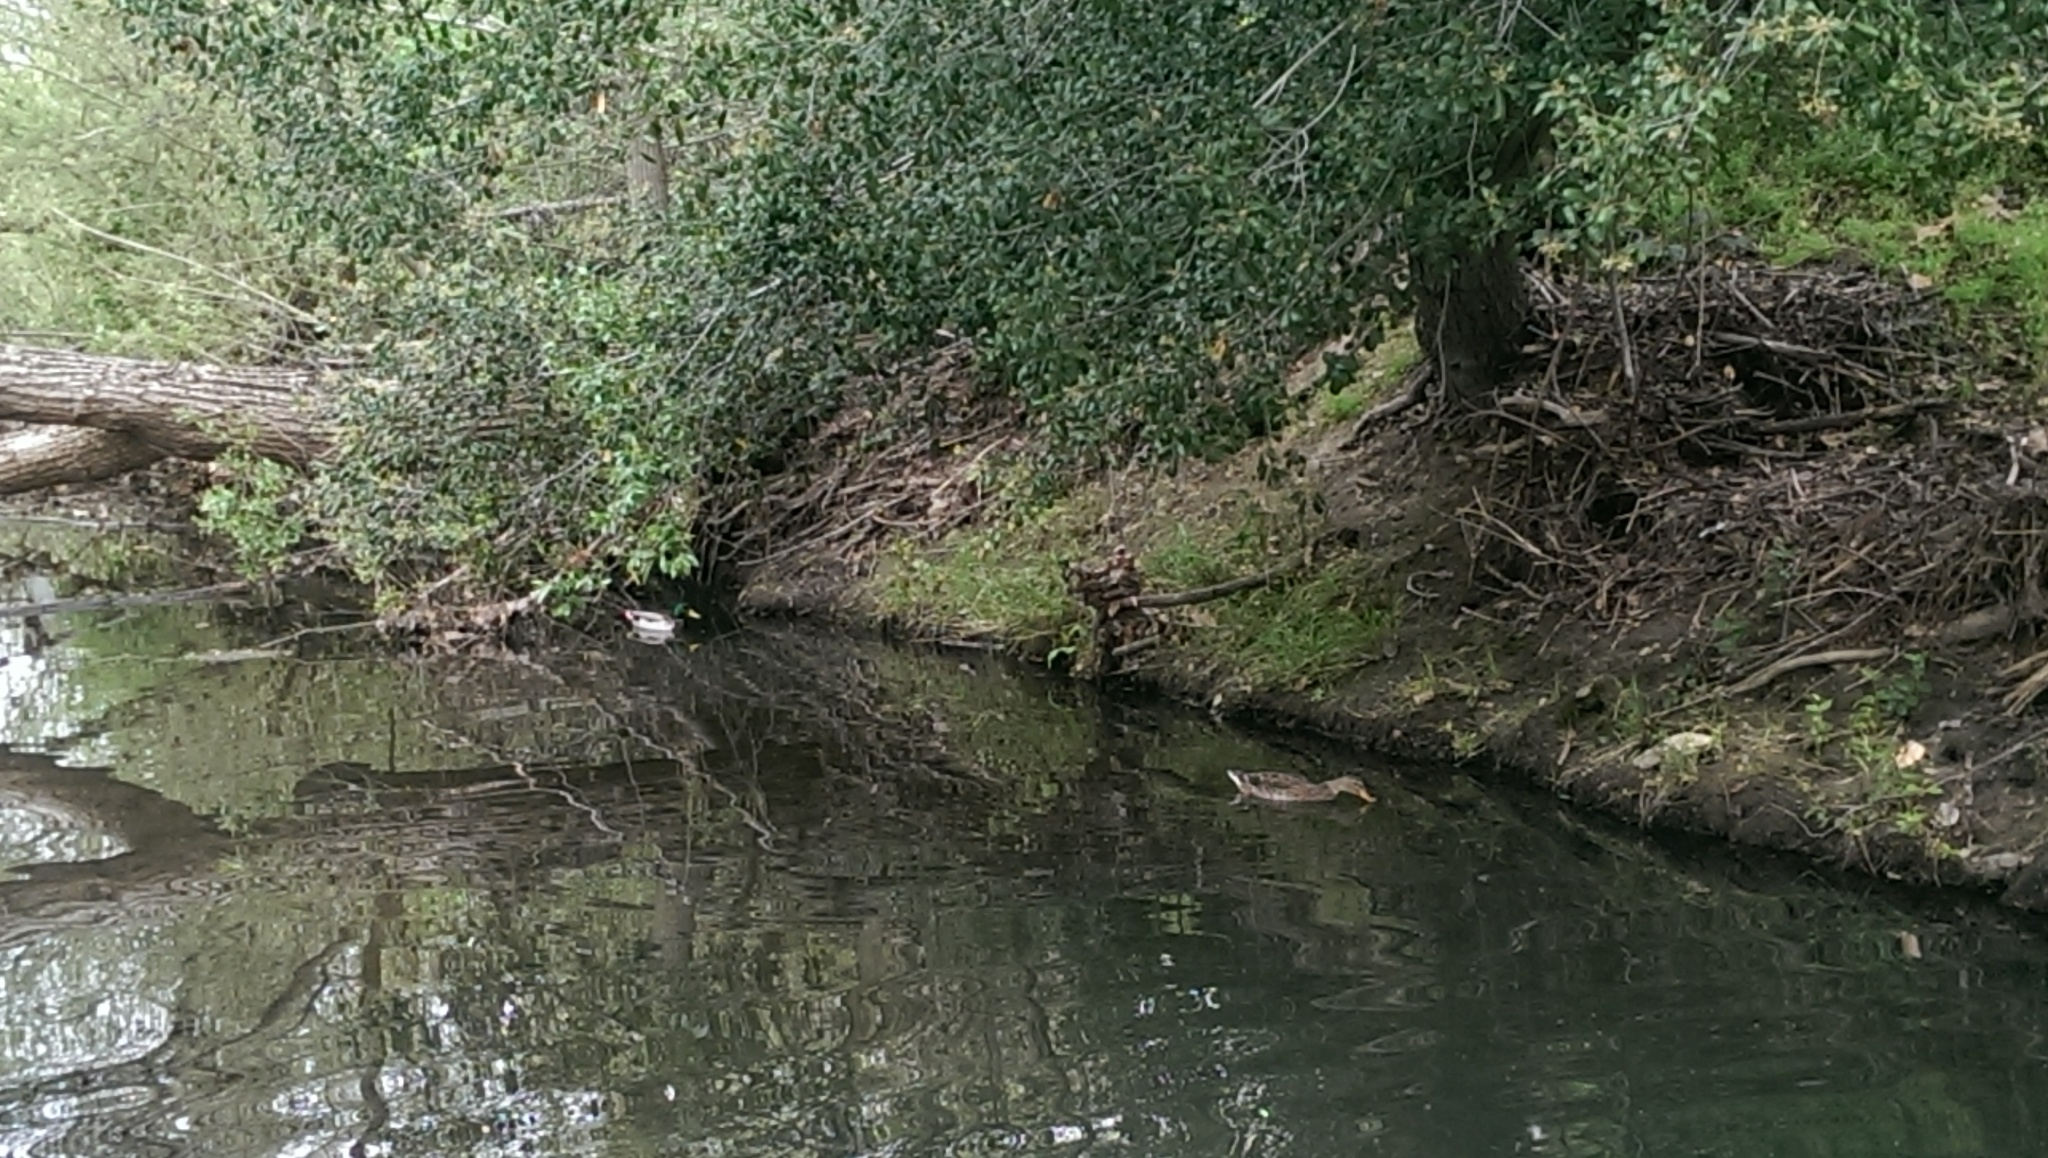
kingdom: Animalia
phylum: Chordata
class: Aves
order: Anseriformes
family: Anatidae
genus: Anas
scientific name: Anas platyrhynchos
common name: Mallard
